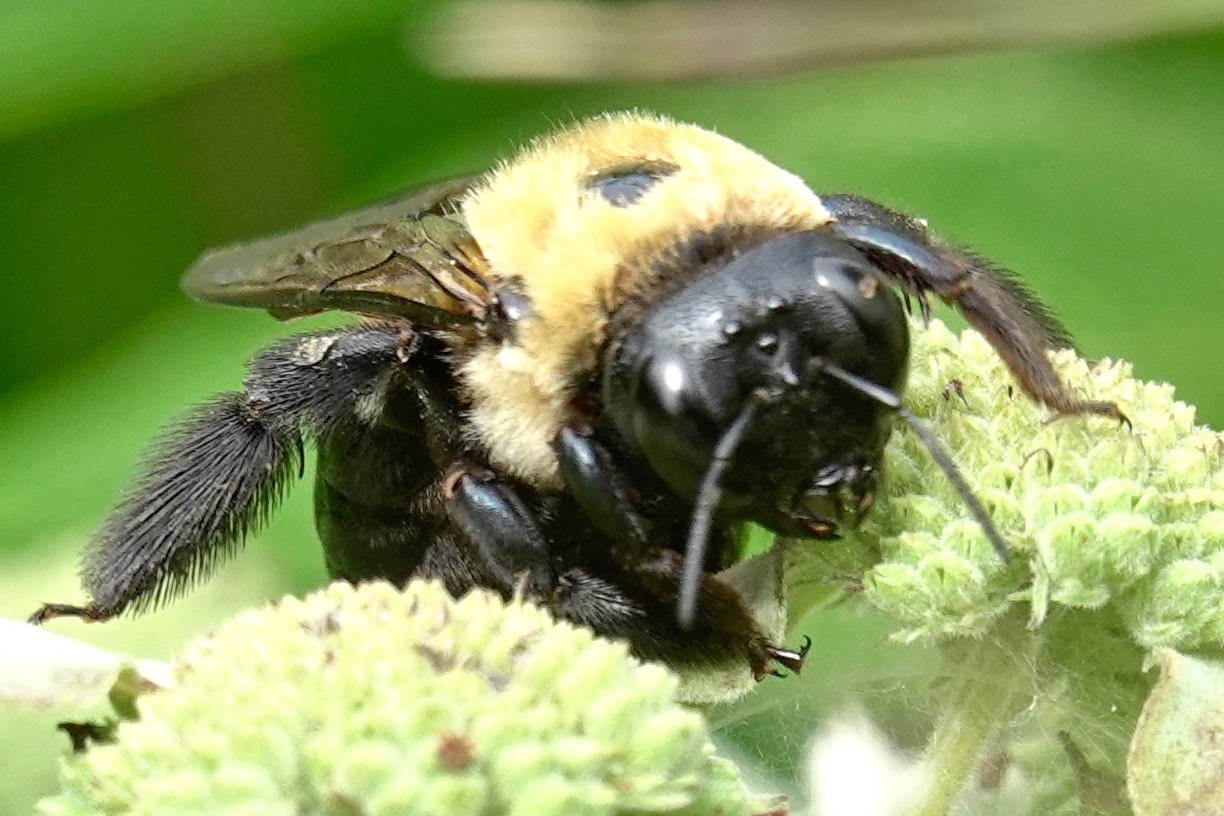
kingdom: Animalia
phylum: Arthropoda
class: Insecta
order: Hymenoptera
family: Apidae
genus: Xylocopa
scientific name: Xylocopa virginica
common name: Carpenter bee
